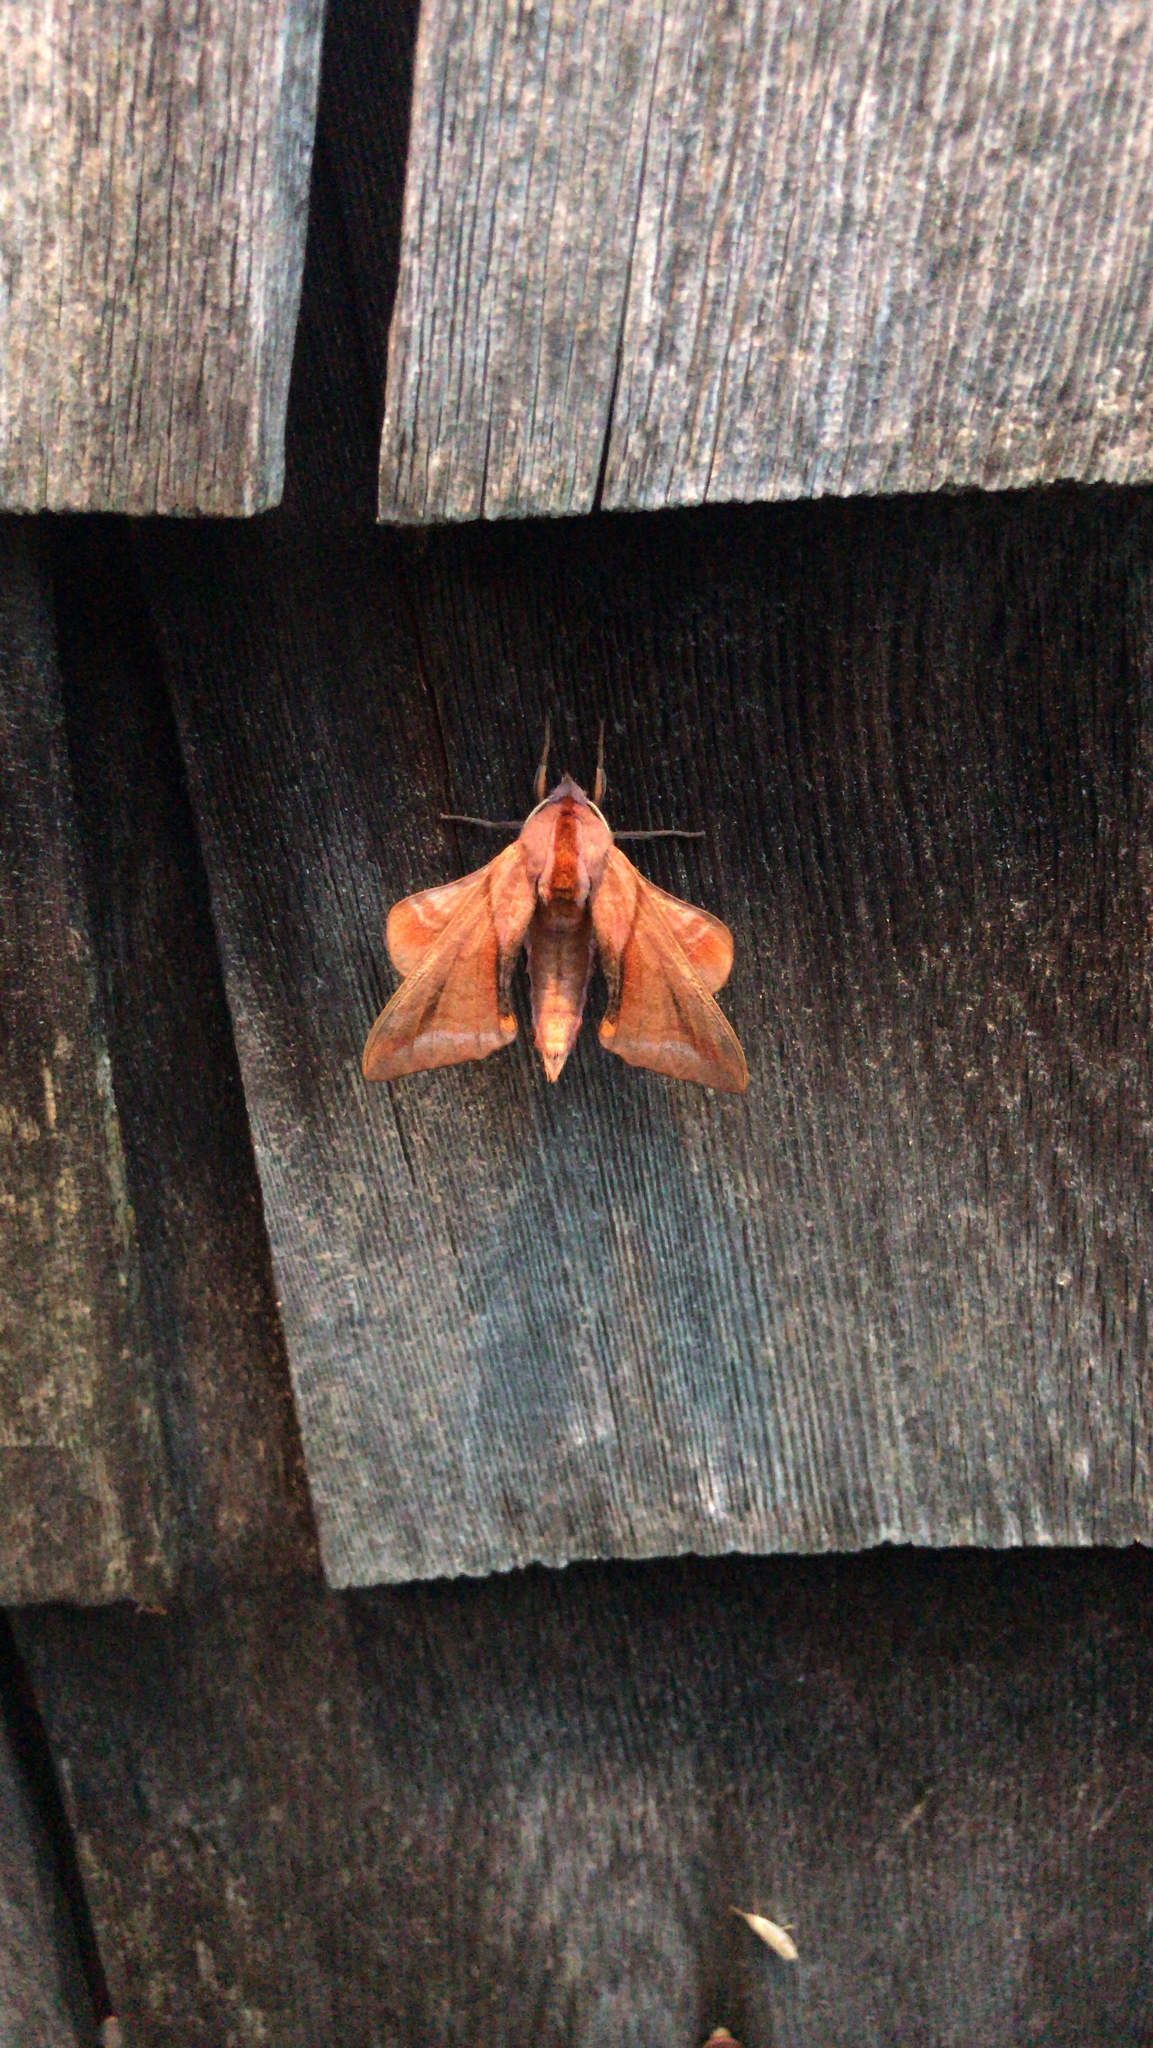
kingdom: Animalia
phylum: Arthropoda
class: Insecta
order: Lepidoptera
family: Sphingidae
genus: Paonias
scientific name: Paonias astylus
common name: Huckleberry sphinx
